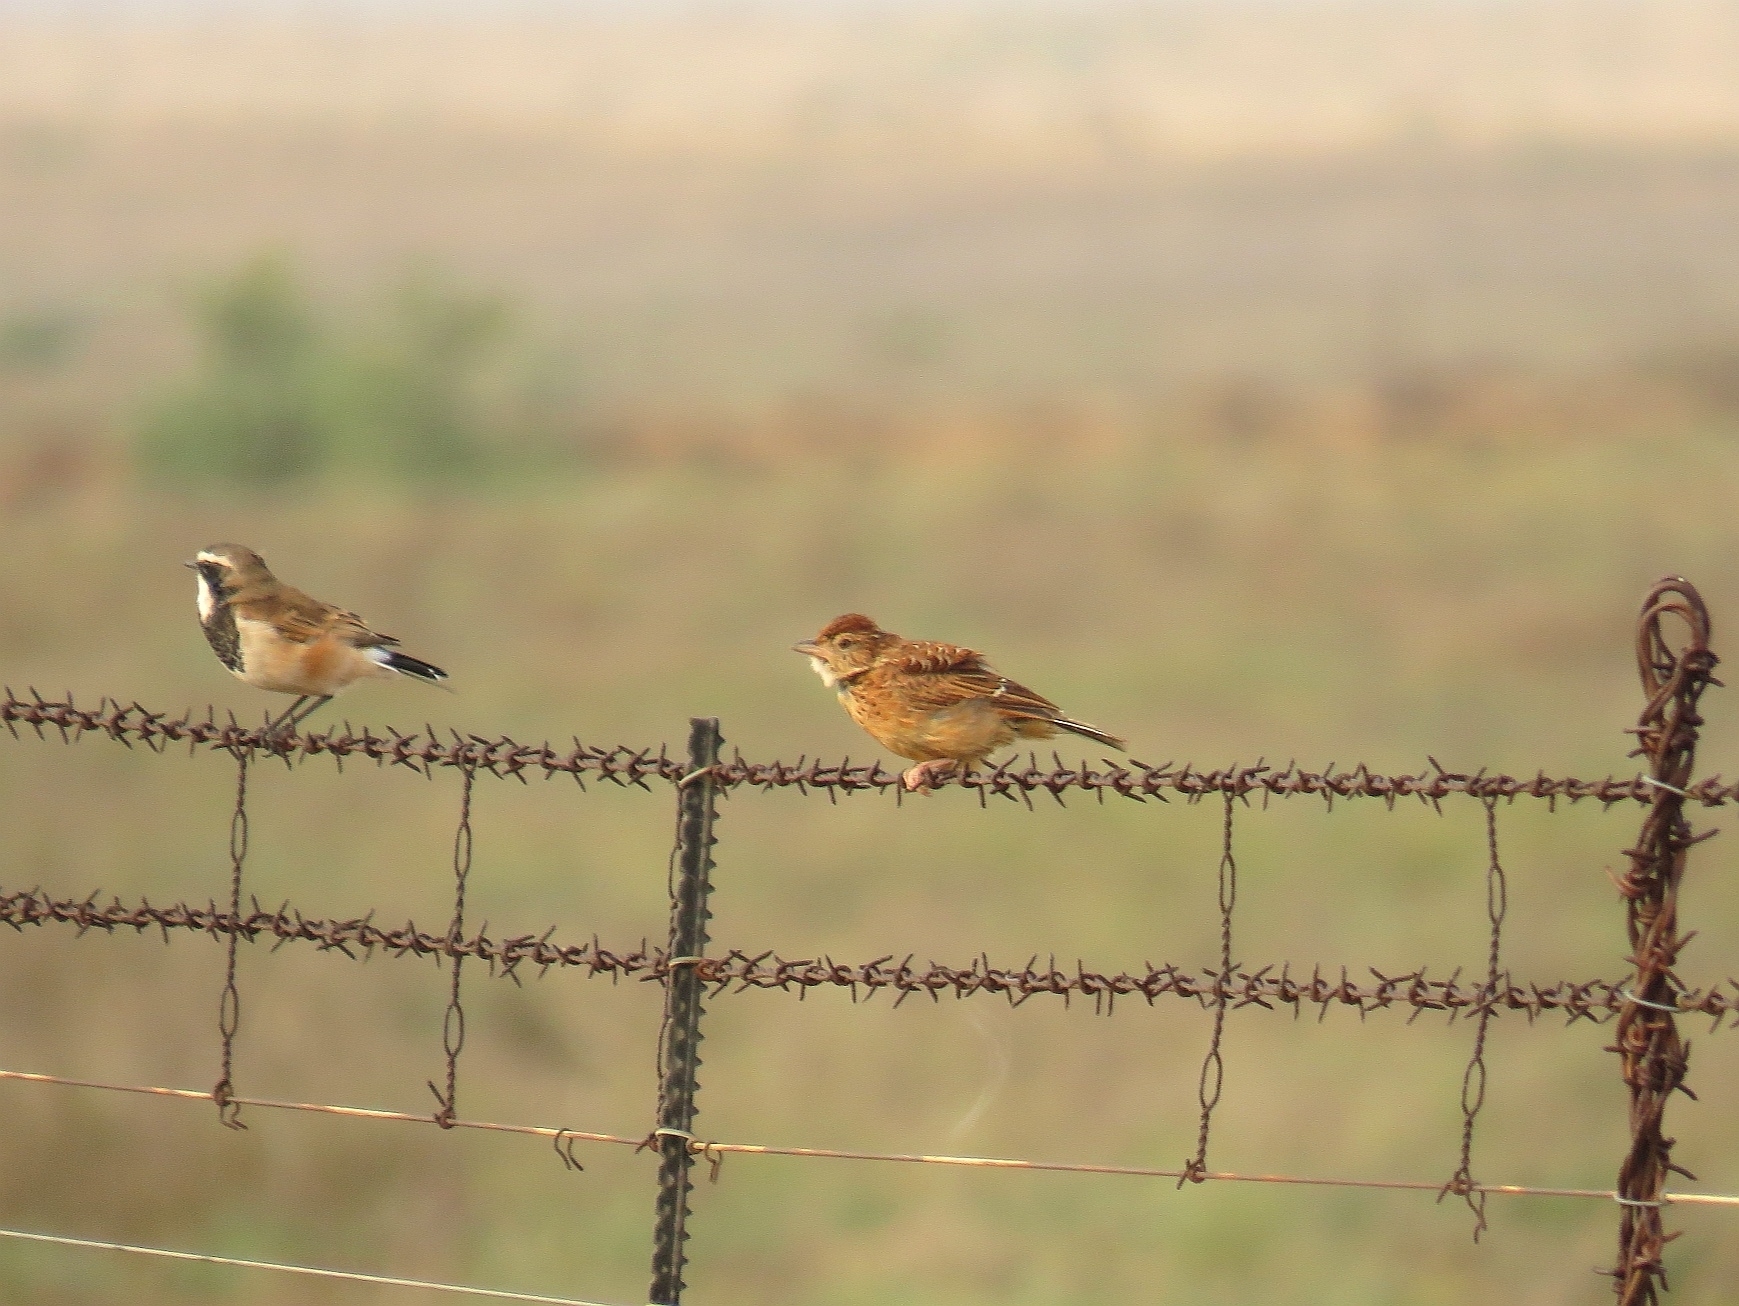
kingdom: Animalia
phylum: Chordata
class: Aves
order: Passeriformes
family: Alaudidae
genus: Mirafra
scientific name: Mirafra fasciolata
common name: Eastern clapper lark
